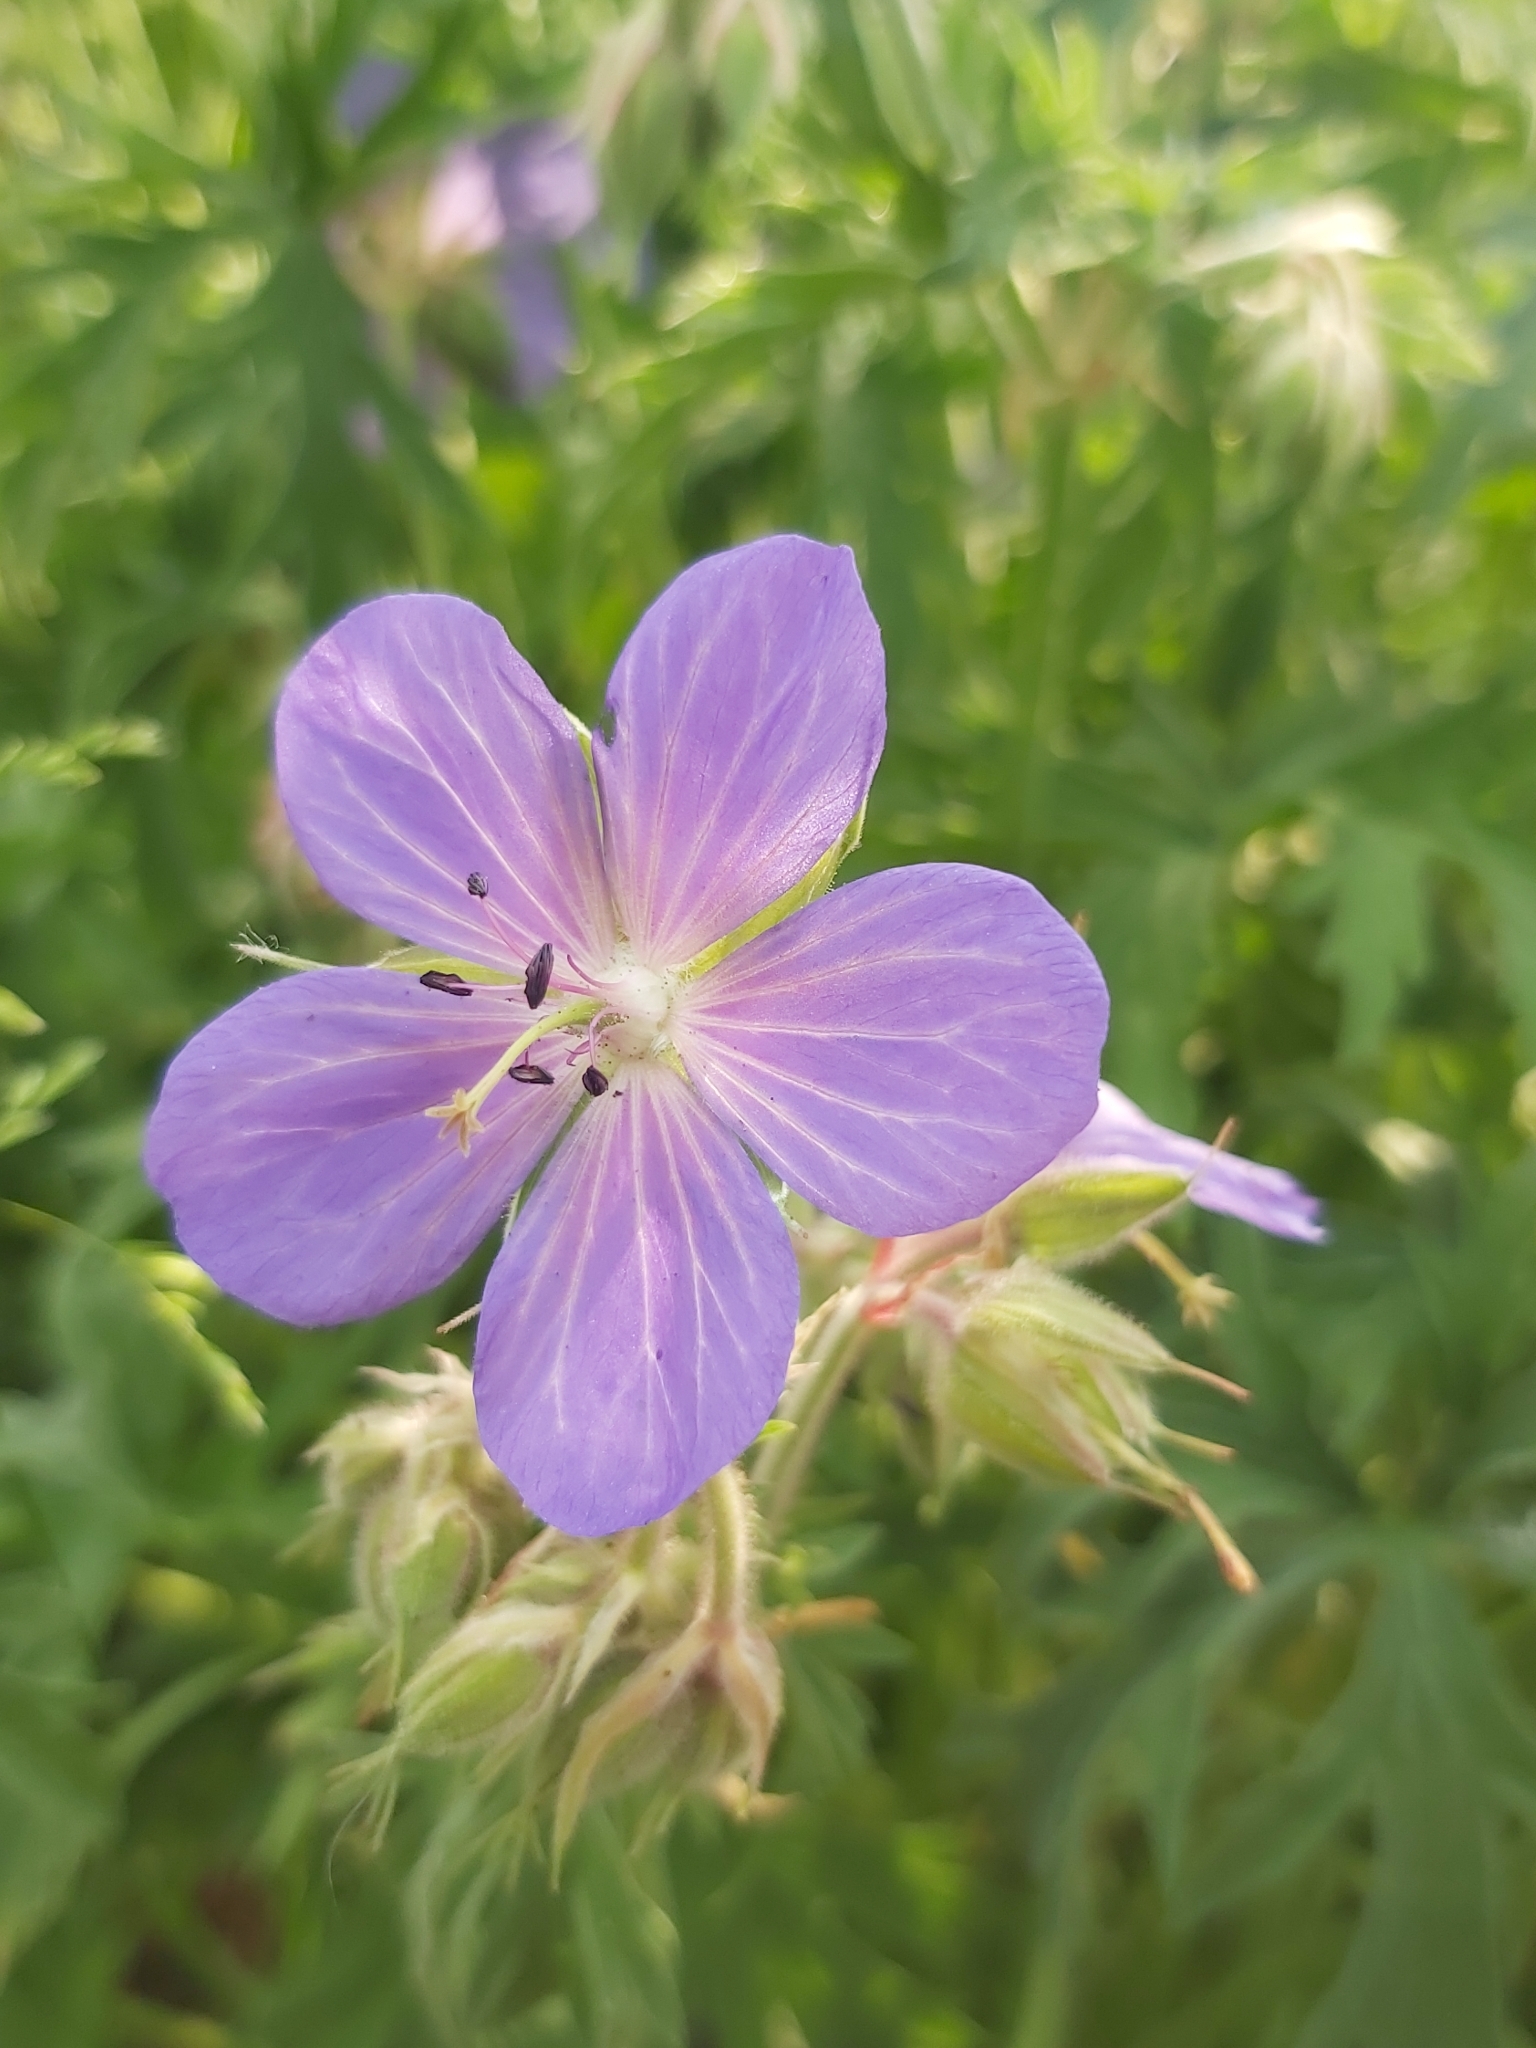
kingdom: Plantae
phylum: Tracheophyta
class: Magnoliopsida
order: Geraniales
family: Geraniaceae
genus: Geranium
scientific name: Geranium pratense
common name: Meadow crane's-bill
